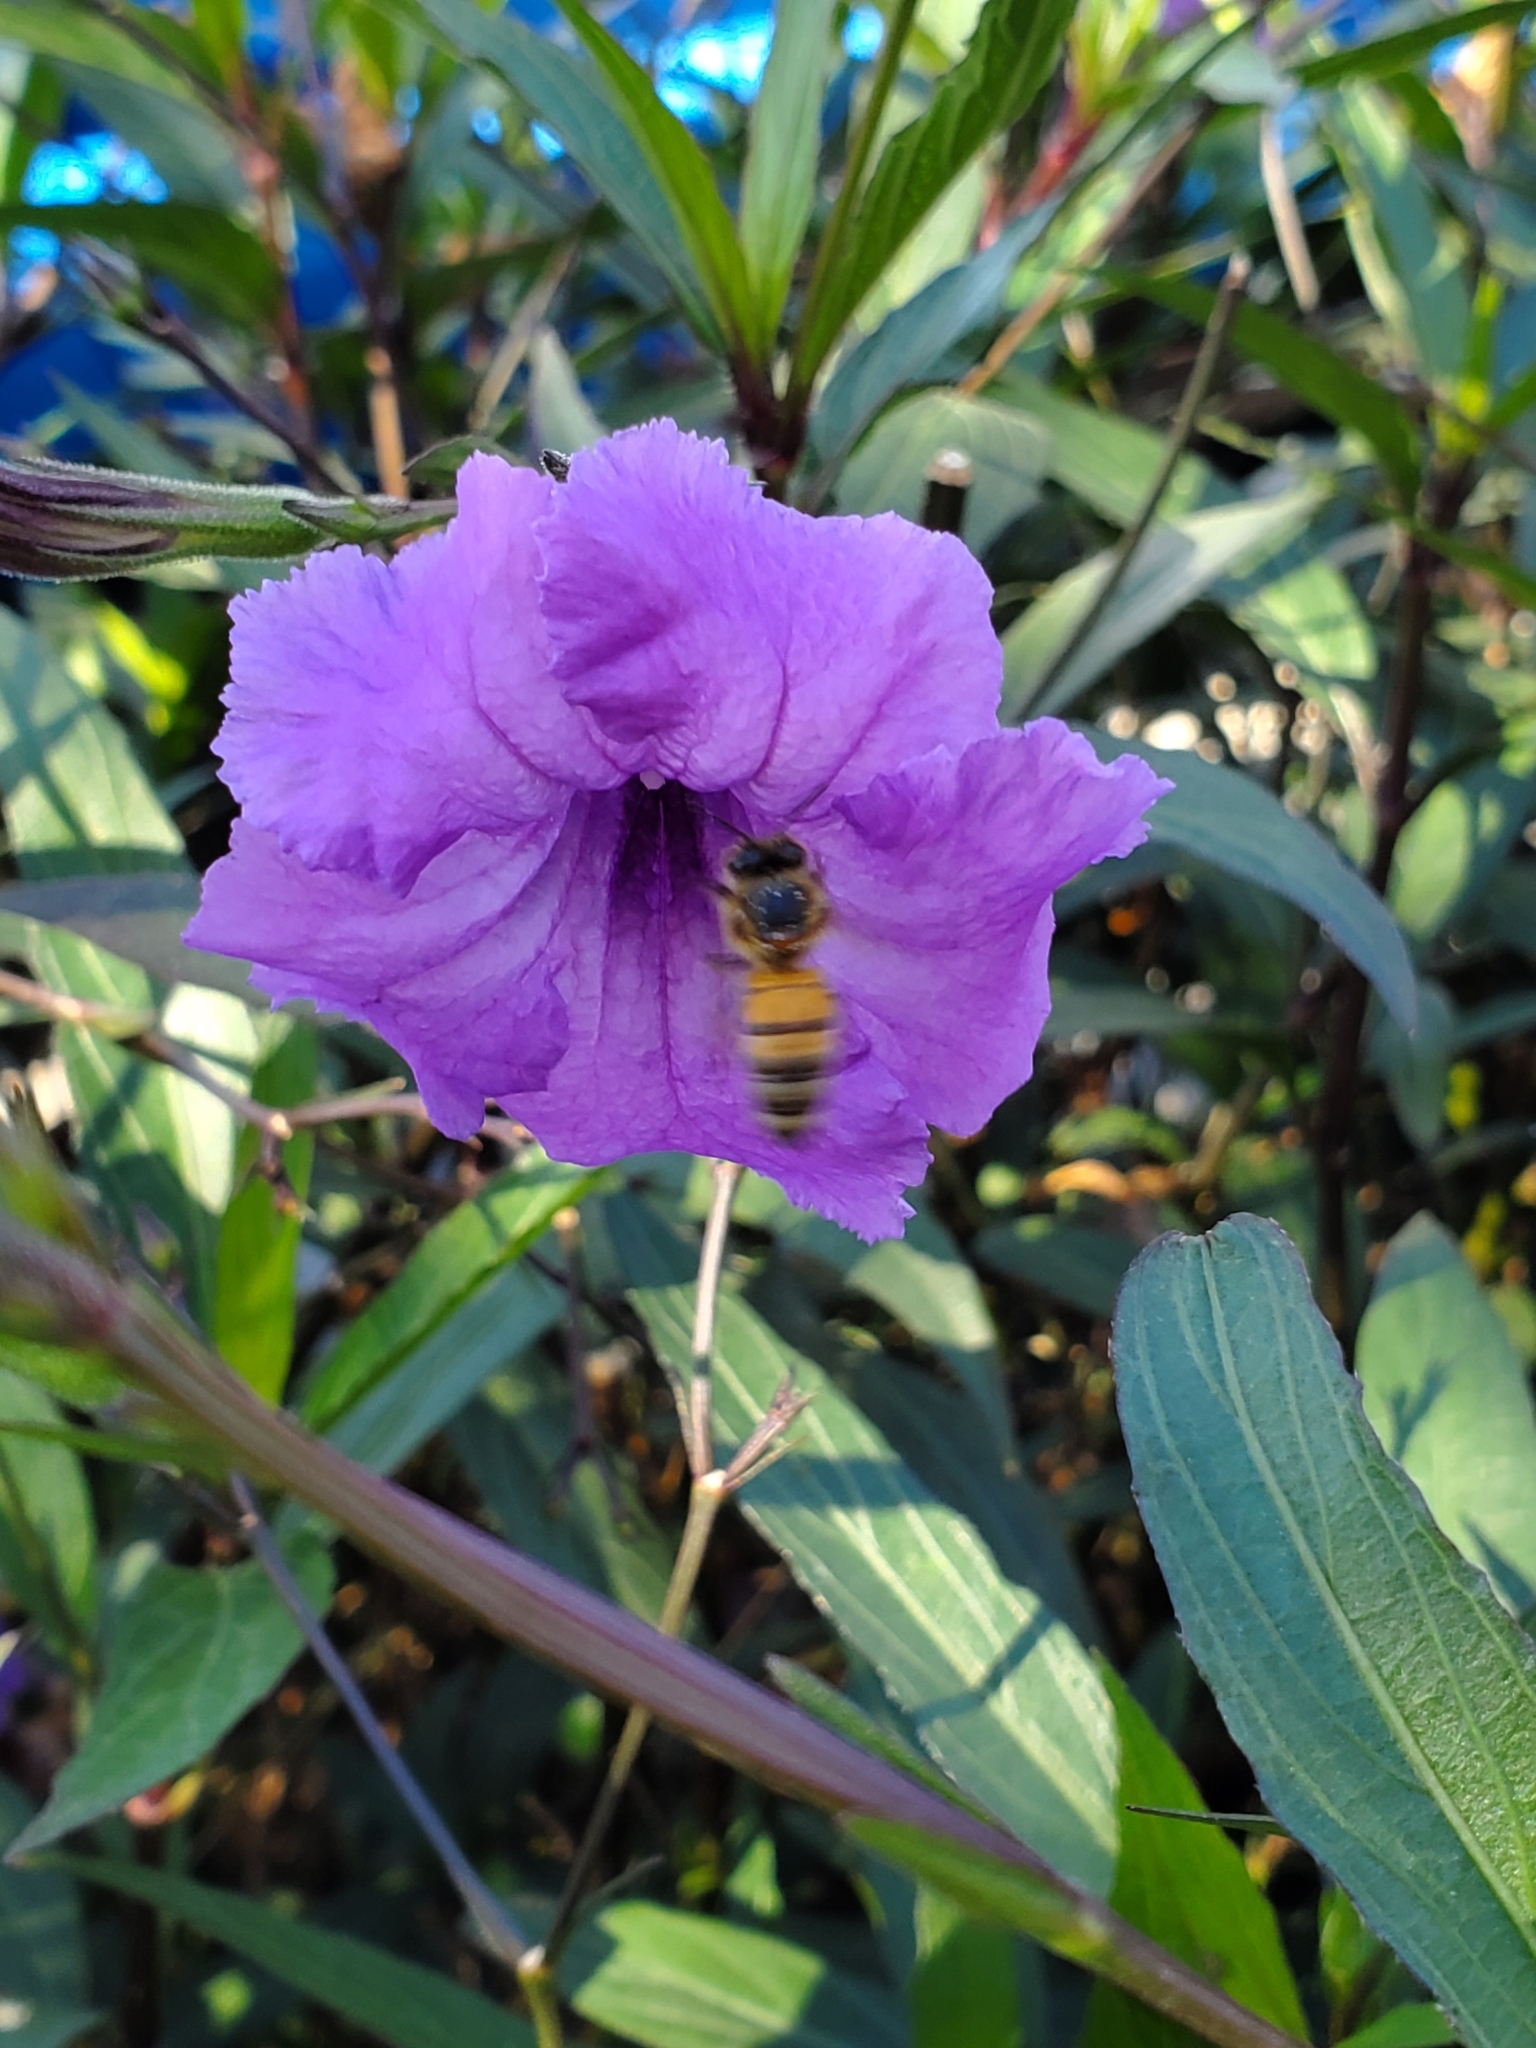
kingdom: Animalia
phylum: Arthropoda
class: Insecta
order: Hymenoptera
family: Apidae
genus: Apis
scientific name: Apis mellifera
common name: Honey bee
